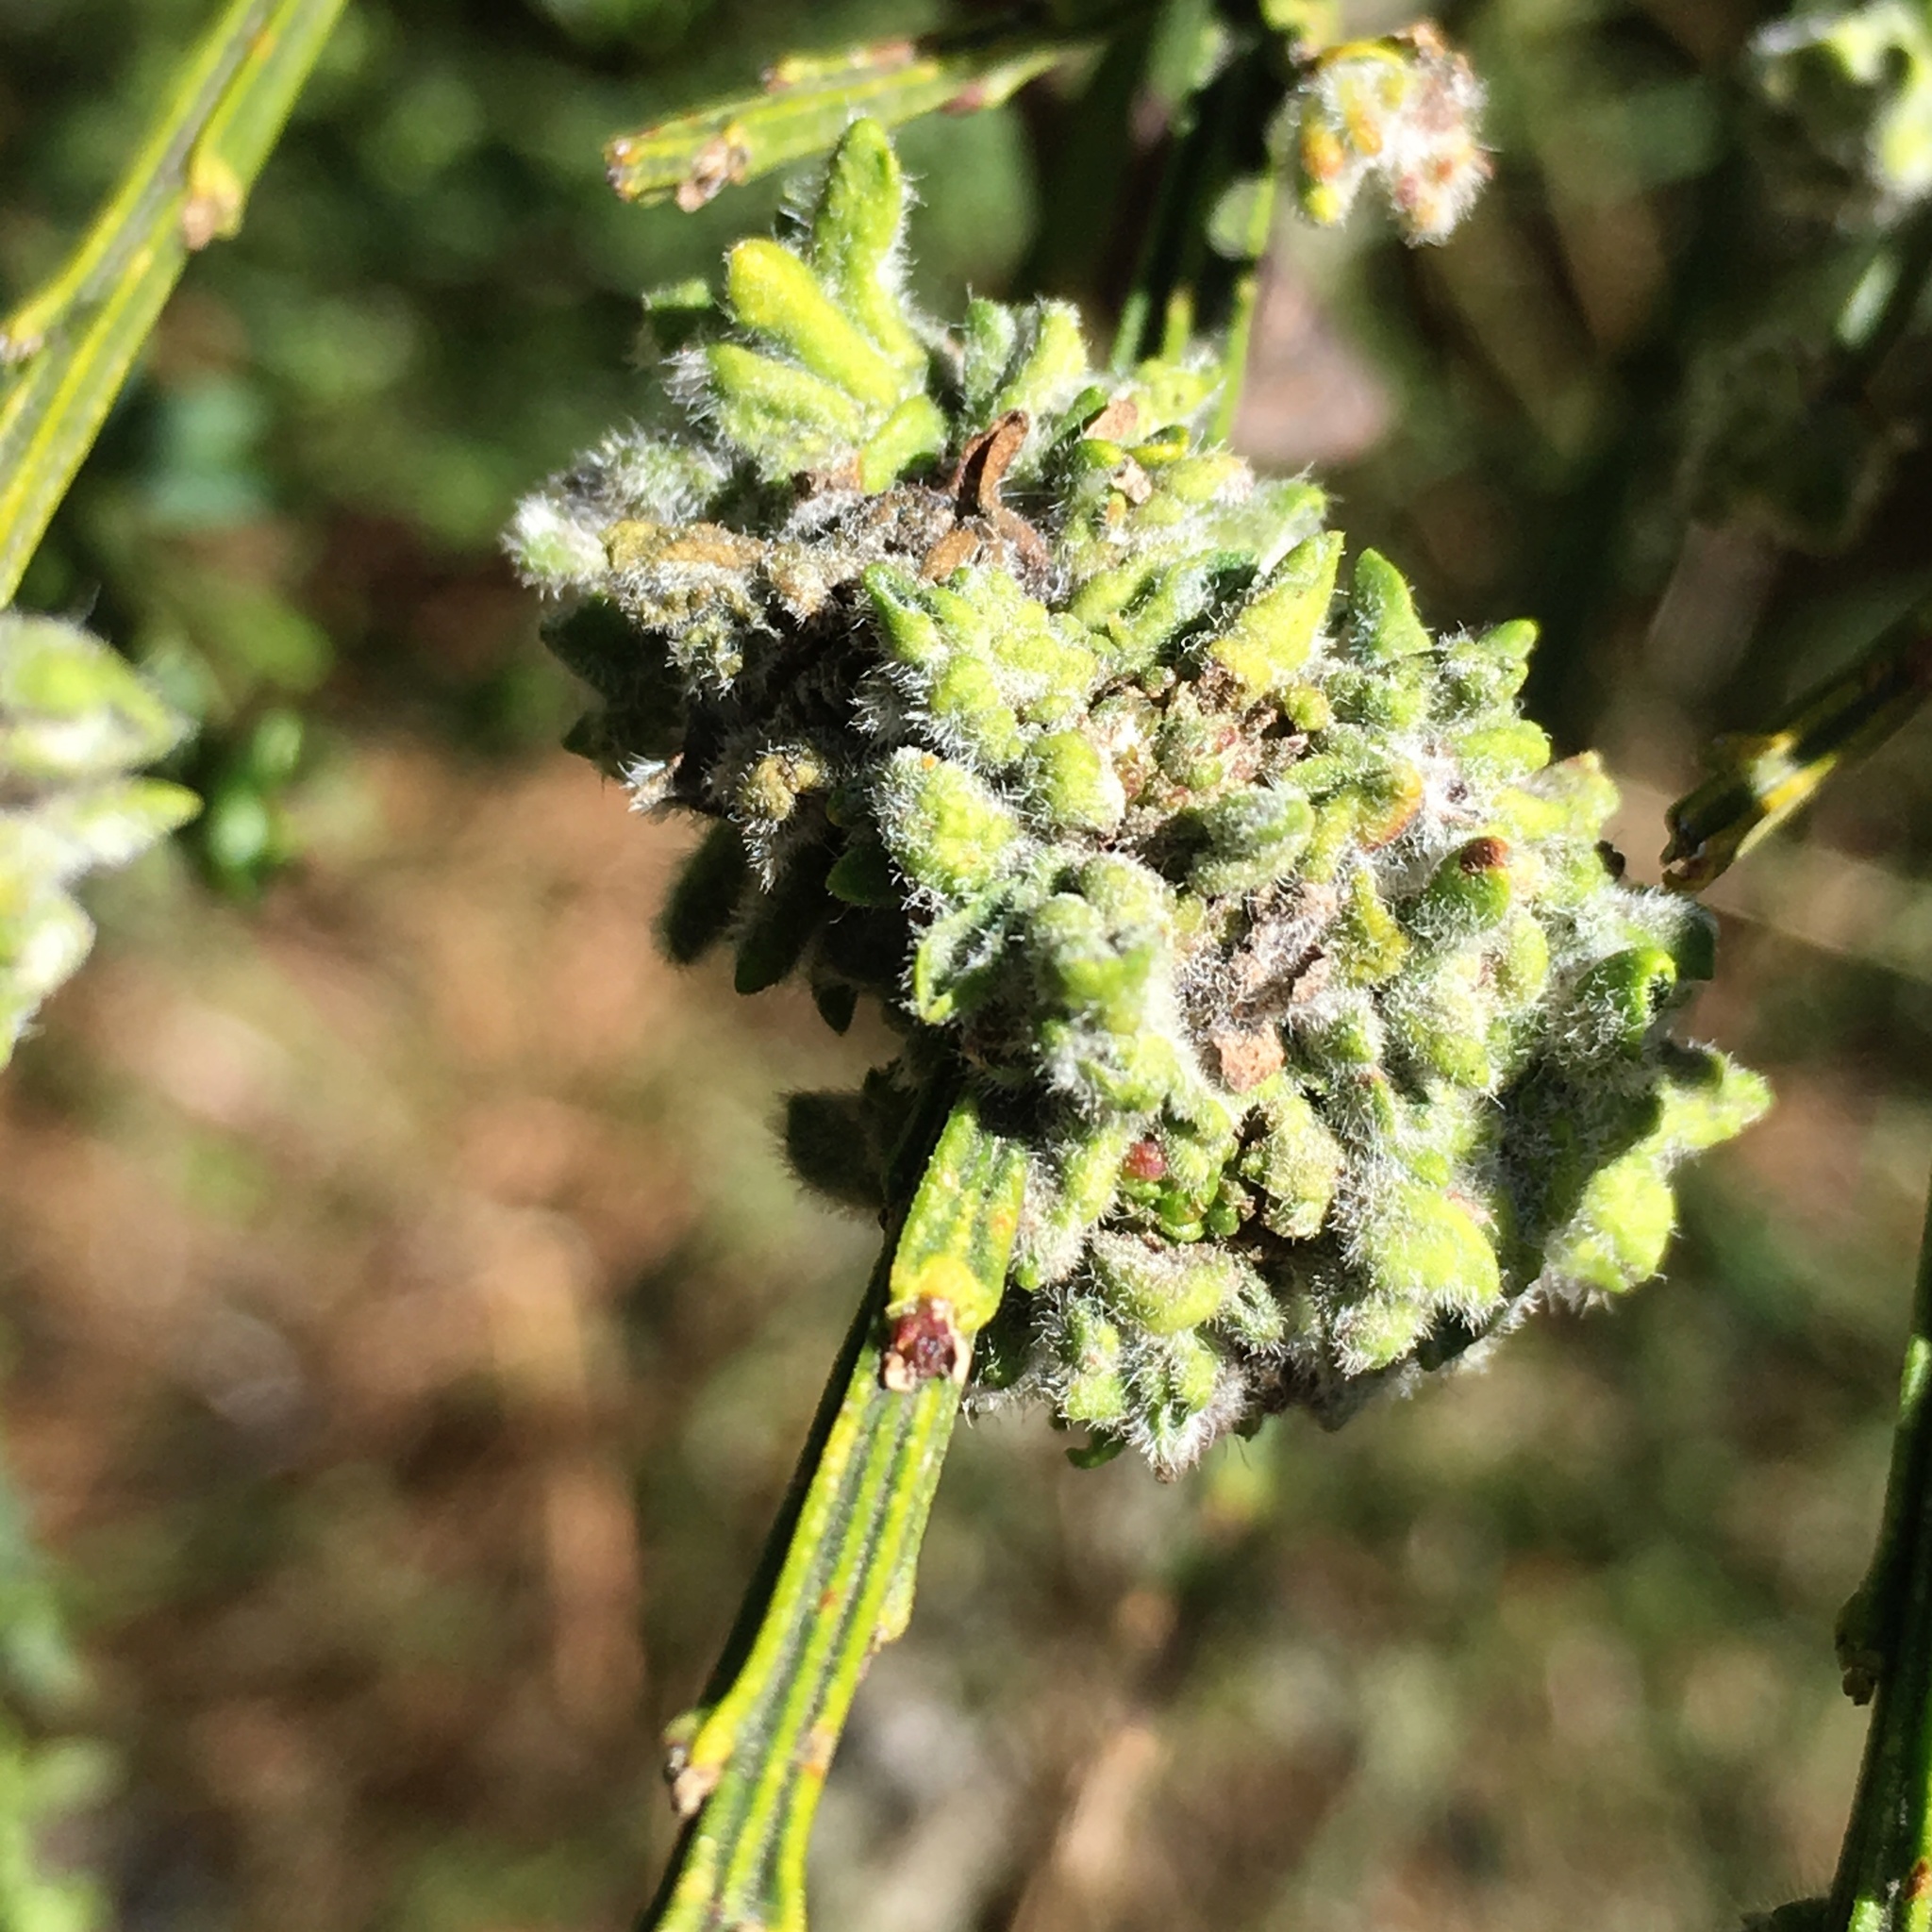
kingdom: Plantae
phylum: Tracheophyta
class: Magnoliopsida
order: Fabales
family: Fabaceae
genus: Cytisus
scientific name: Cytisus scoparius
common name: Scotch broom
